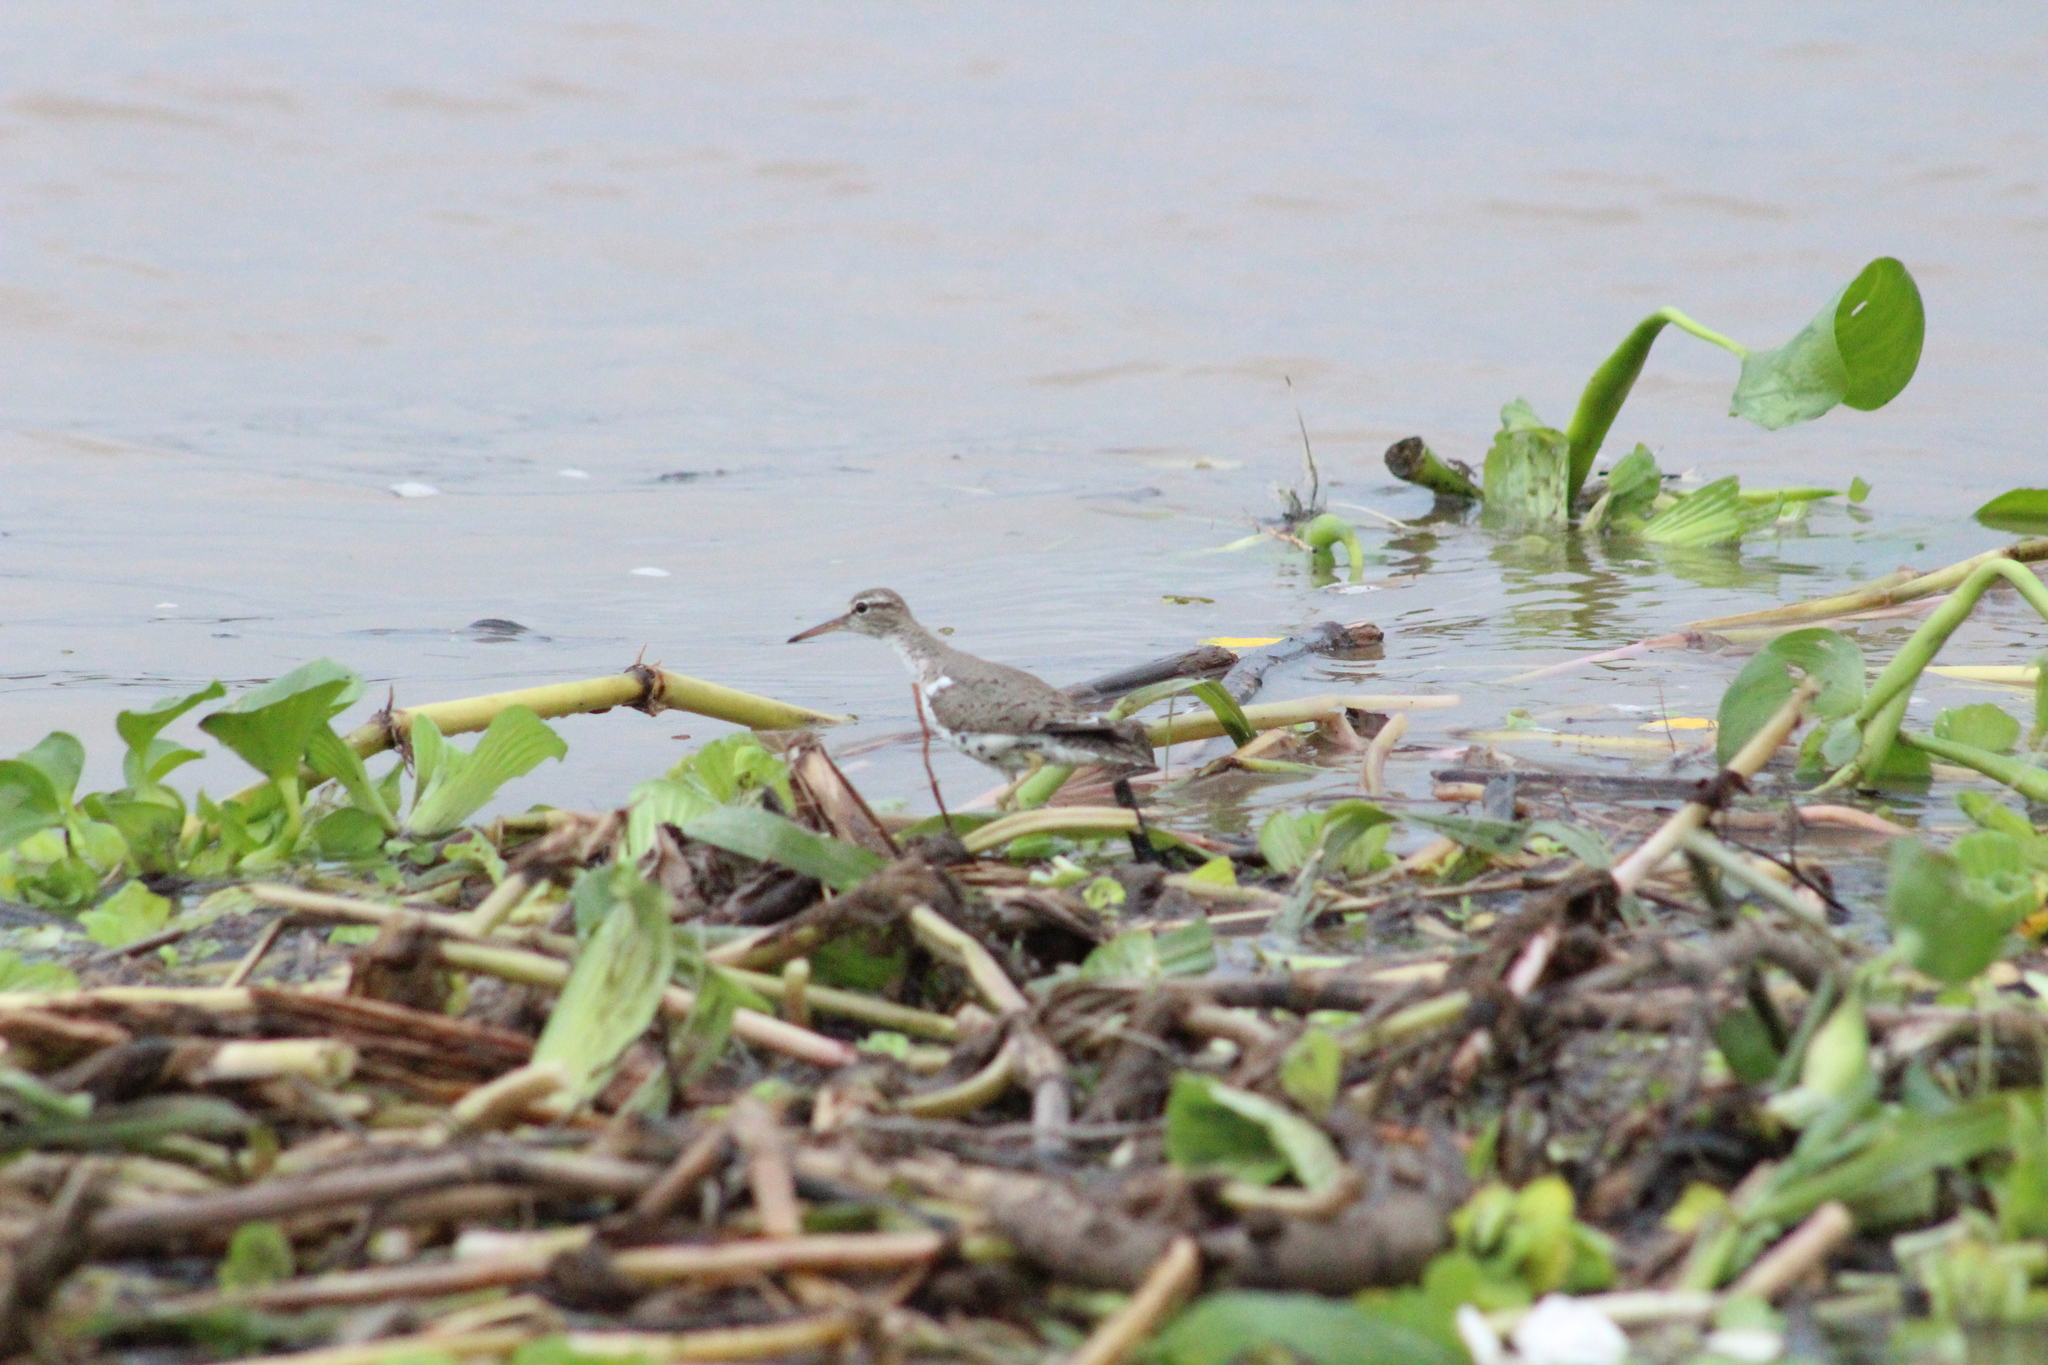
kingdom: Animalia
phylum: Chordata
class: Aves
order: Charadriiformes
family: Scolopacidae
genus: Actitis
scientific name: Actitis macularius
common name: Spotted sandpiper
